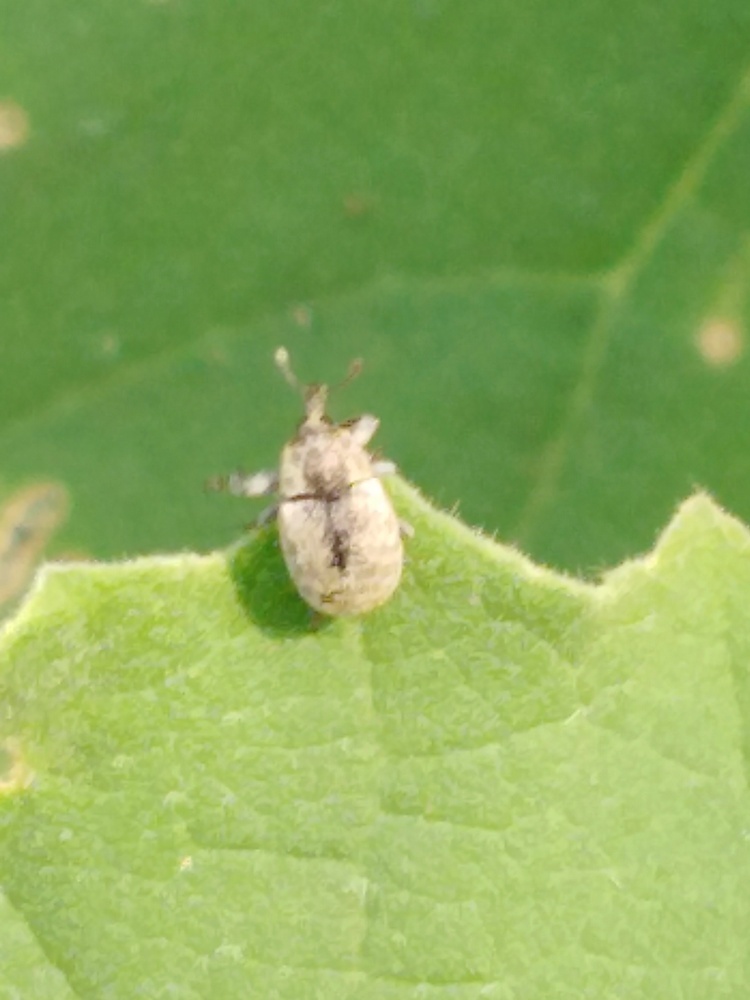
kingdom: Animalia
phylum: Arthropoda
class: Insecta
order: Coleoptera
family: Curculionidae
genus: Acallopistus
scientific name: Acallopistus vellicosus
